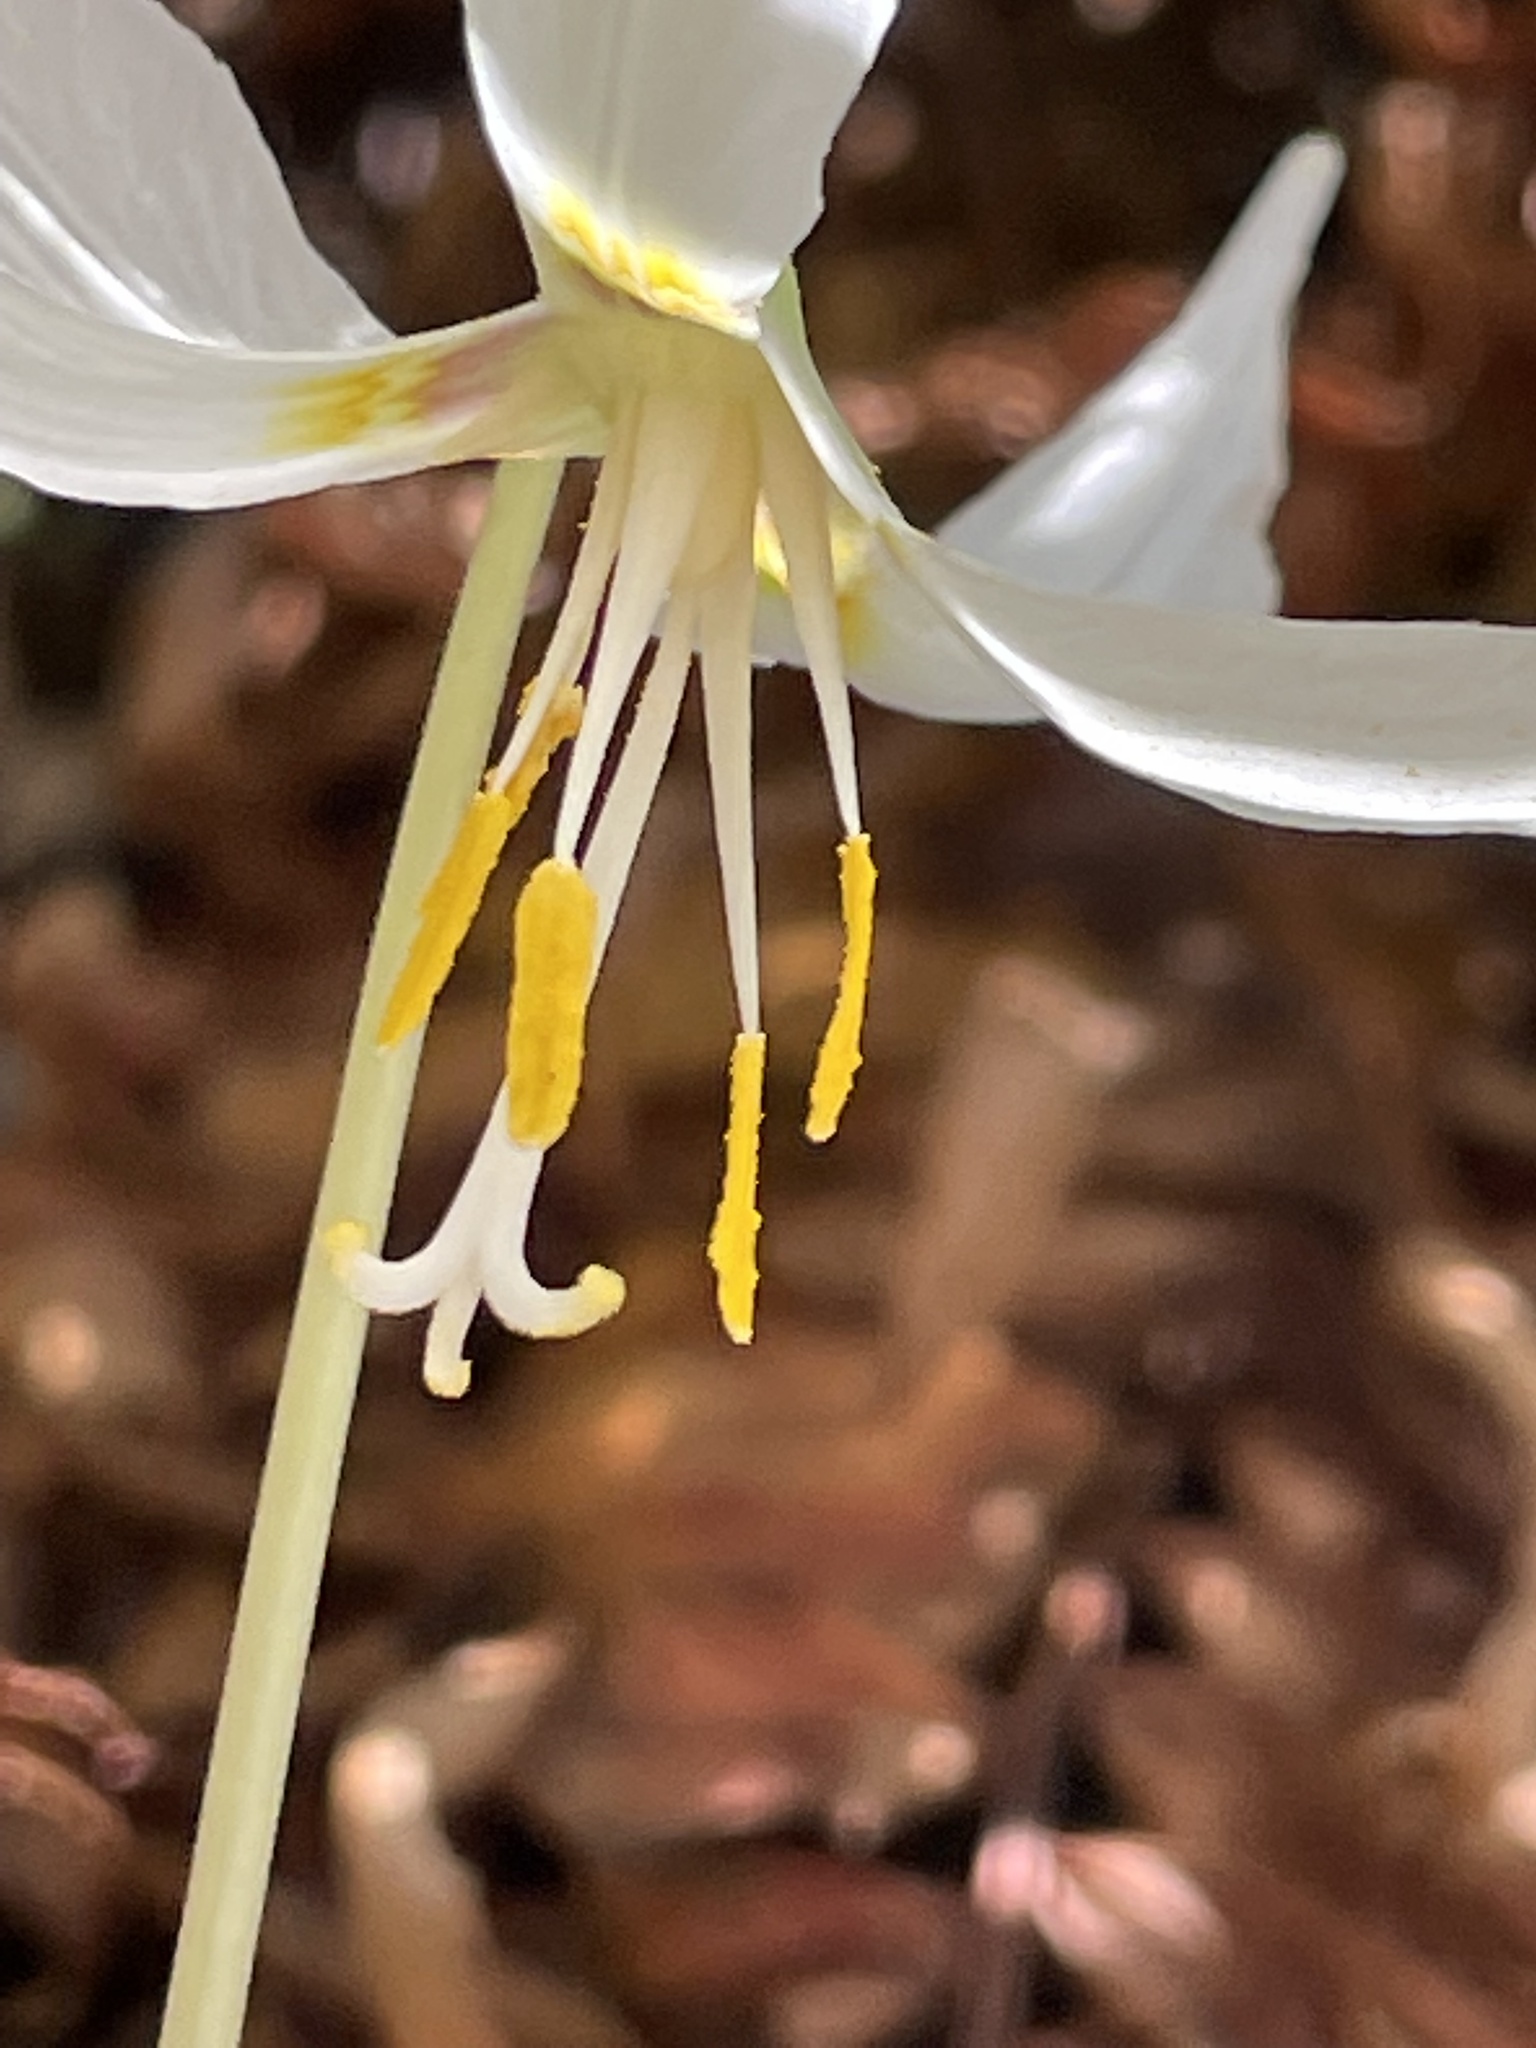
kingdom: Plantae
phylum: Tracheophyta
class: Liliopsida
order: Liliales
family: Liliaceae
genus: Erythronium
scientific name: Erythronium oregonum
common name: Giant adder's-tongue
